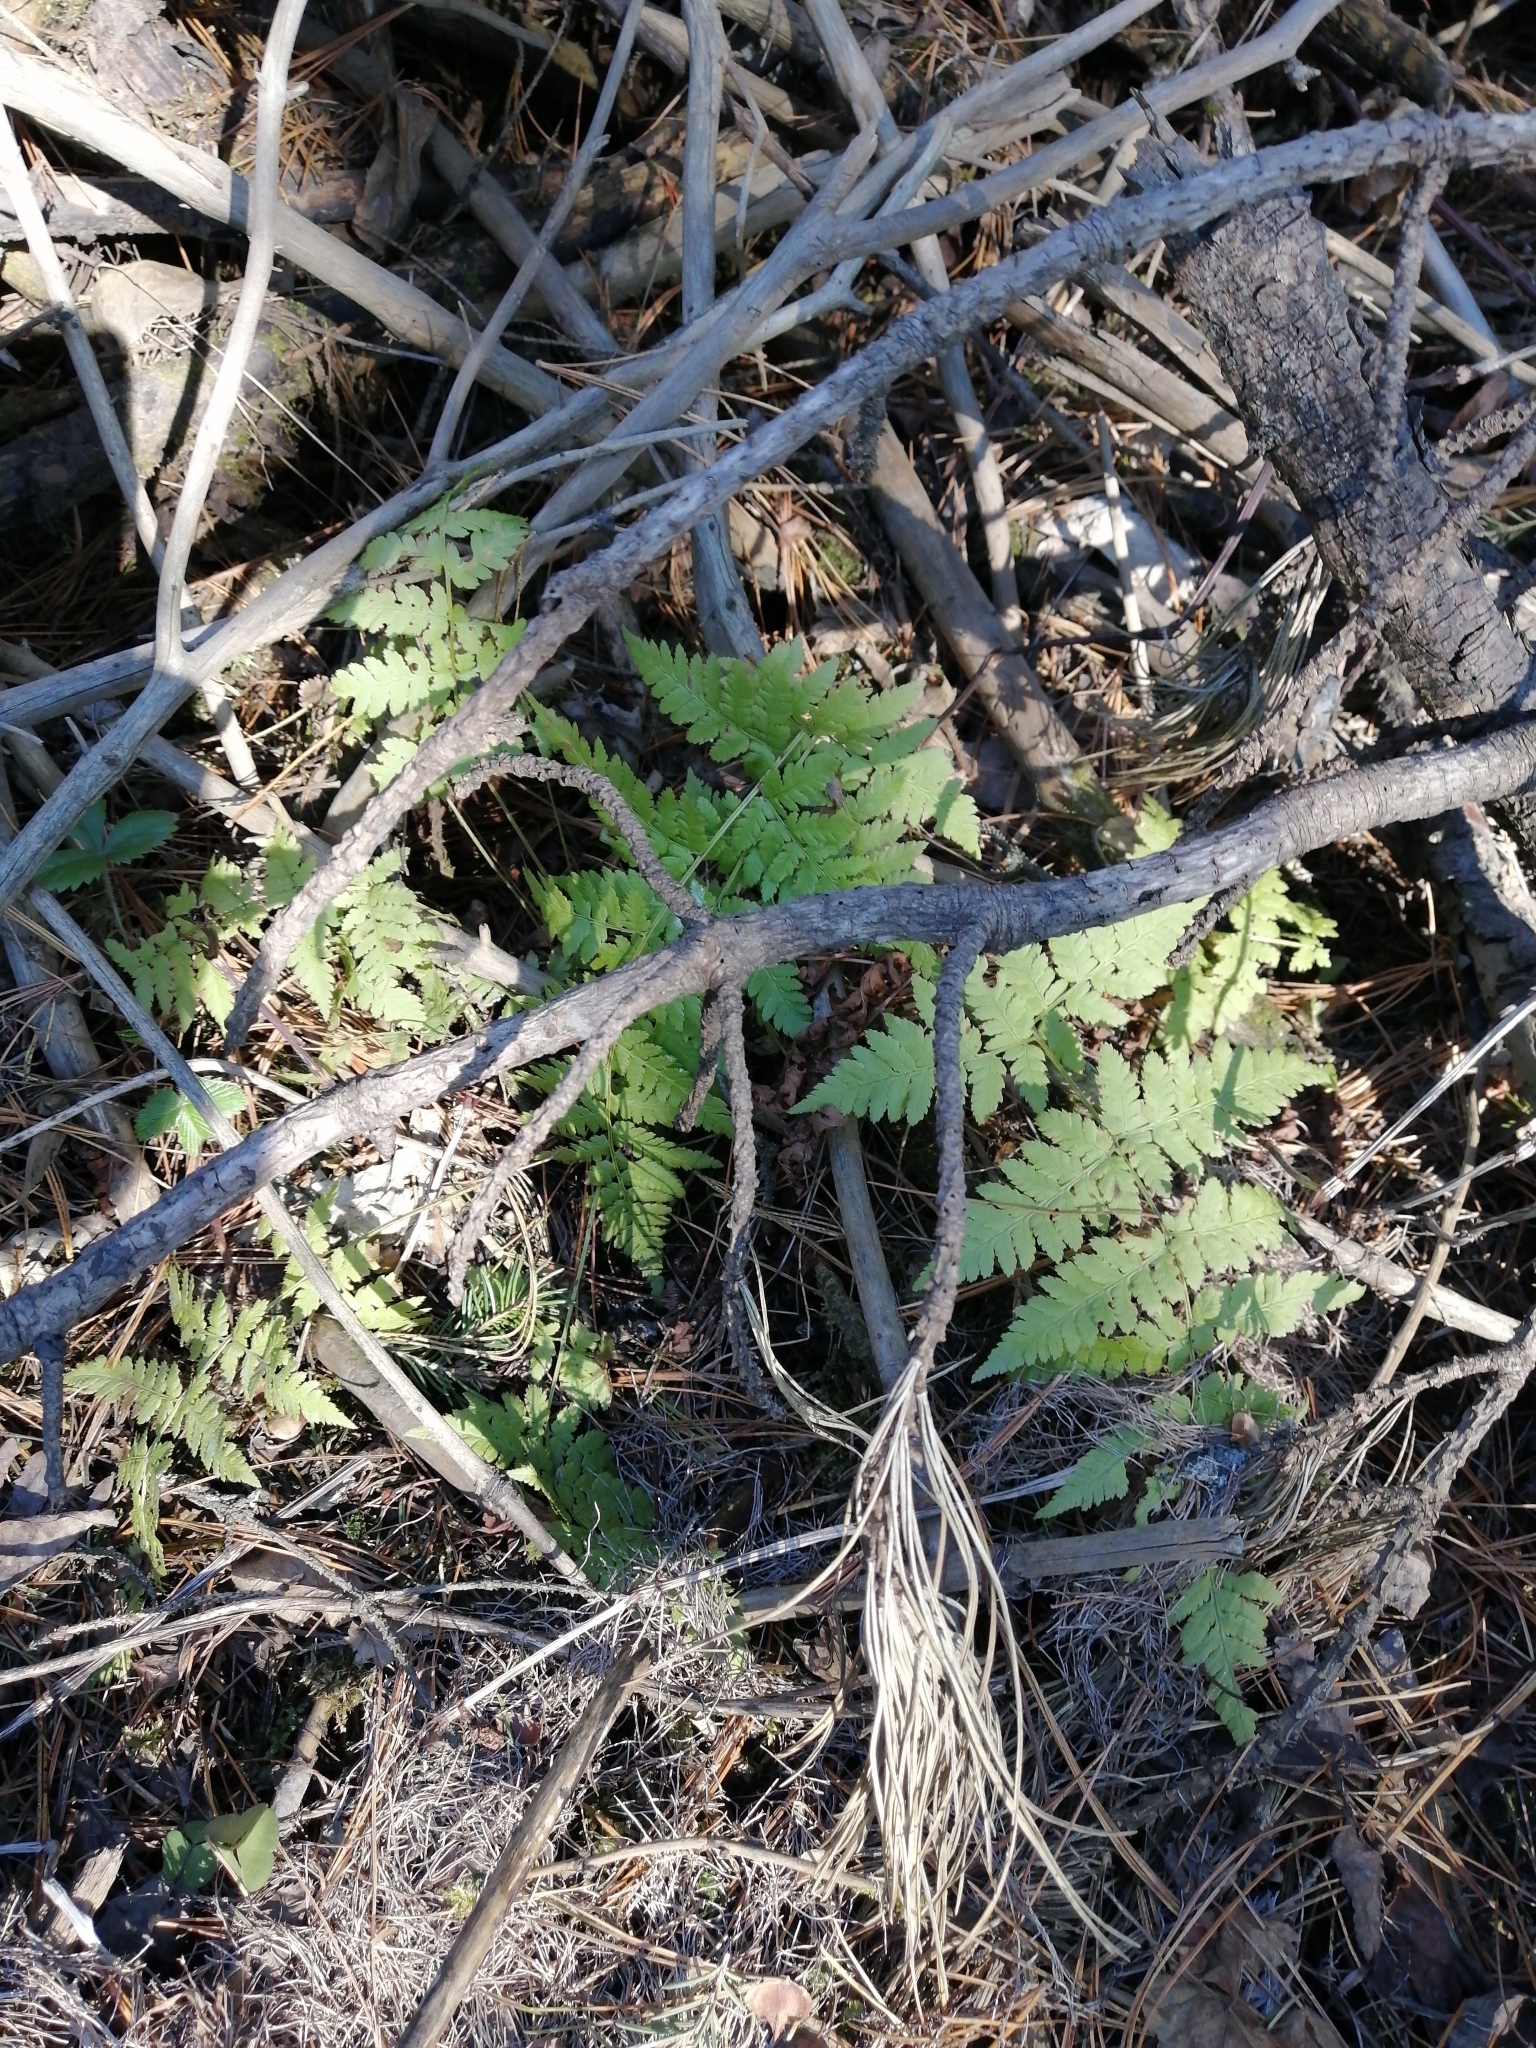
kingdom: Plantae
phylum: Tracheophyta
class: Polypodiopsida
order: Polypodiales
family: Dryopteridaceae
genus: Dryopteris
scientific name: Dryopteris carthusiana
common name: Narrow buckler-fern
